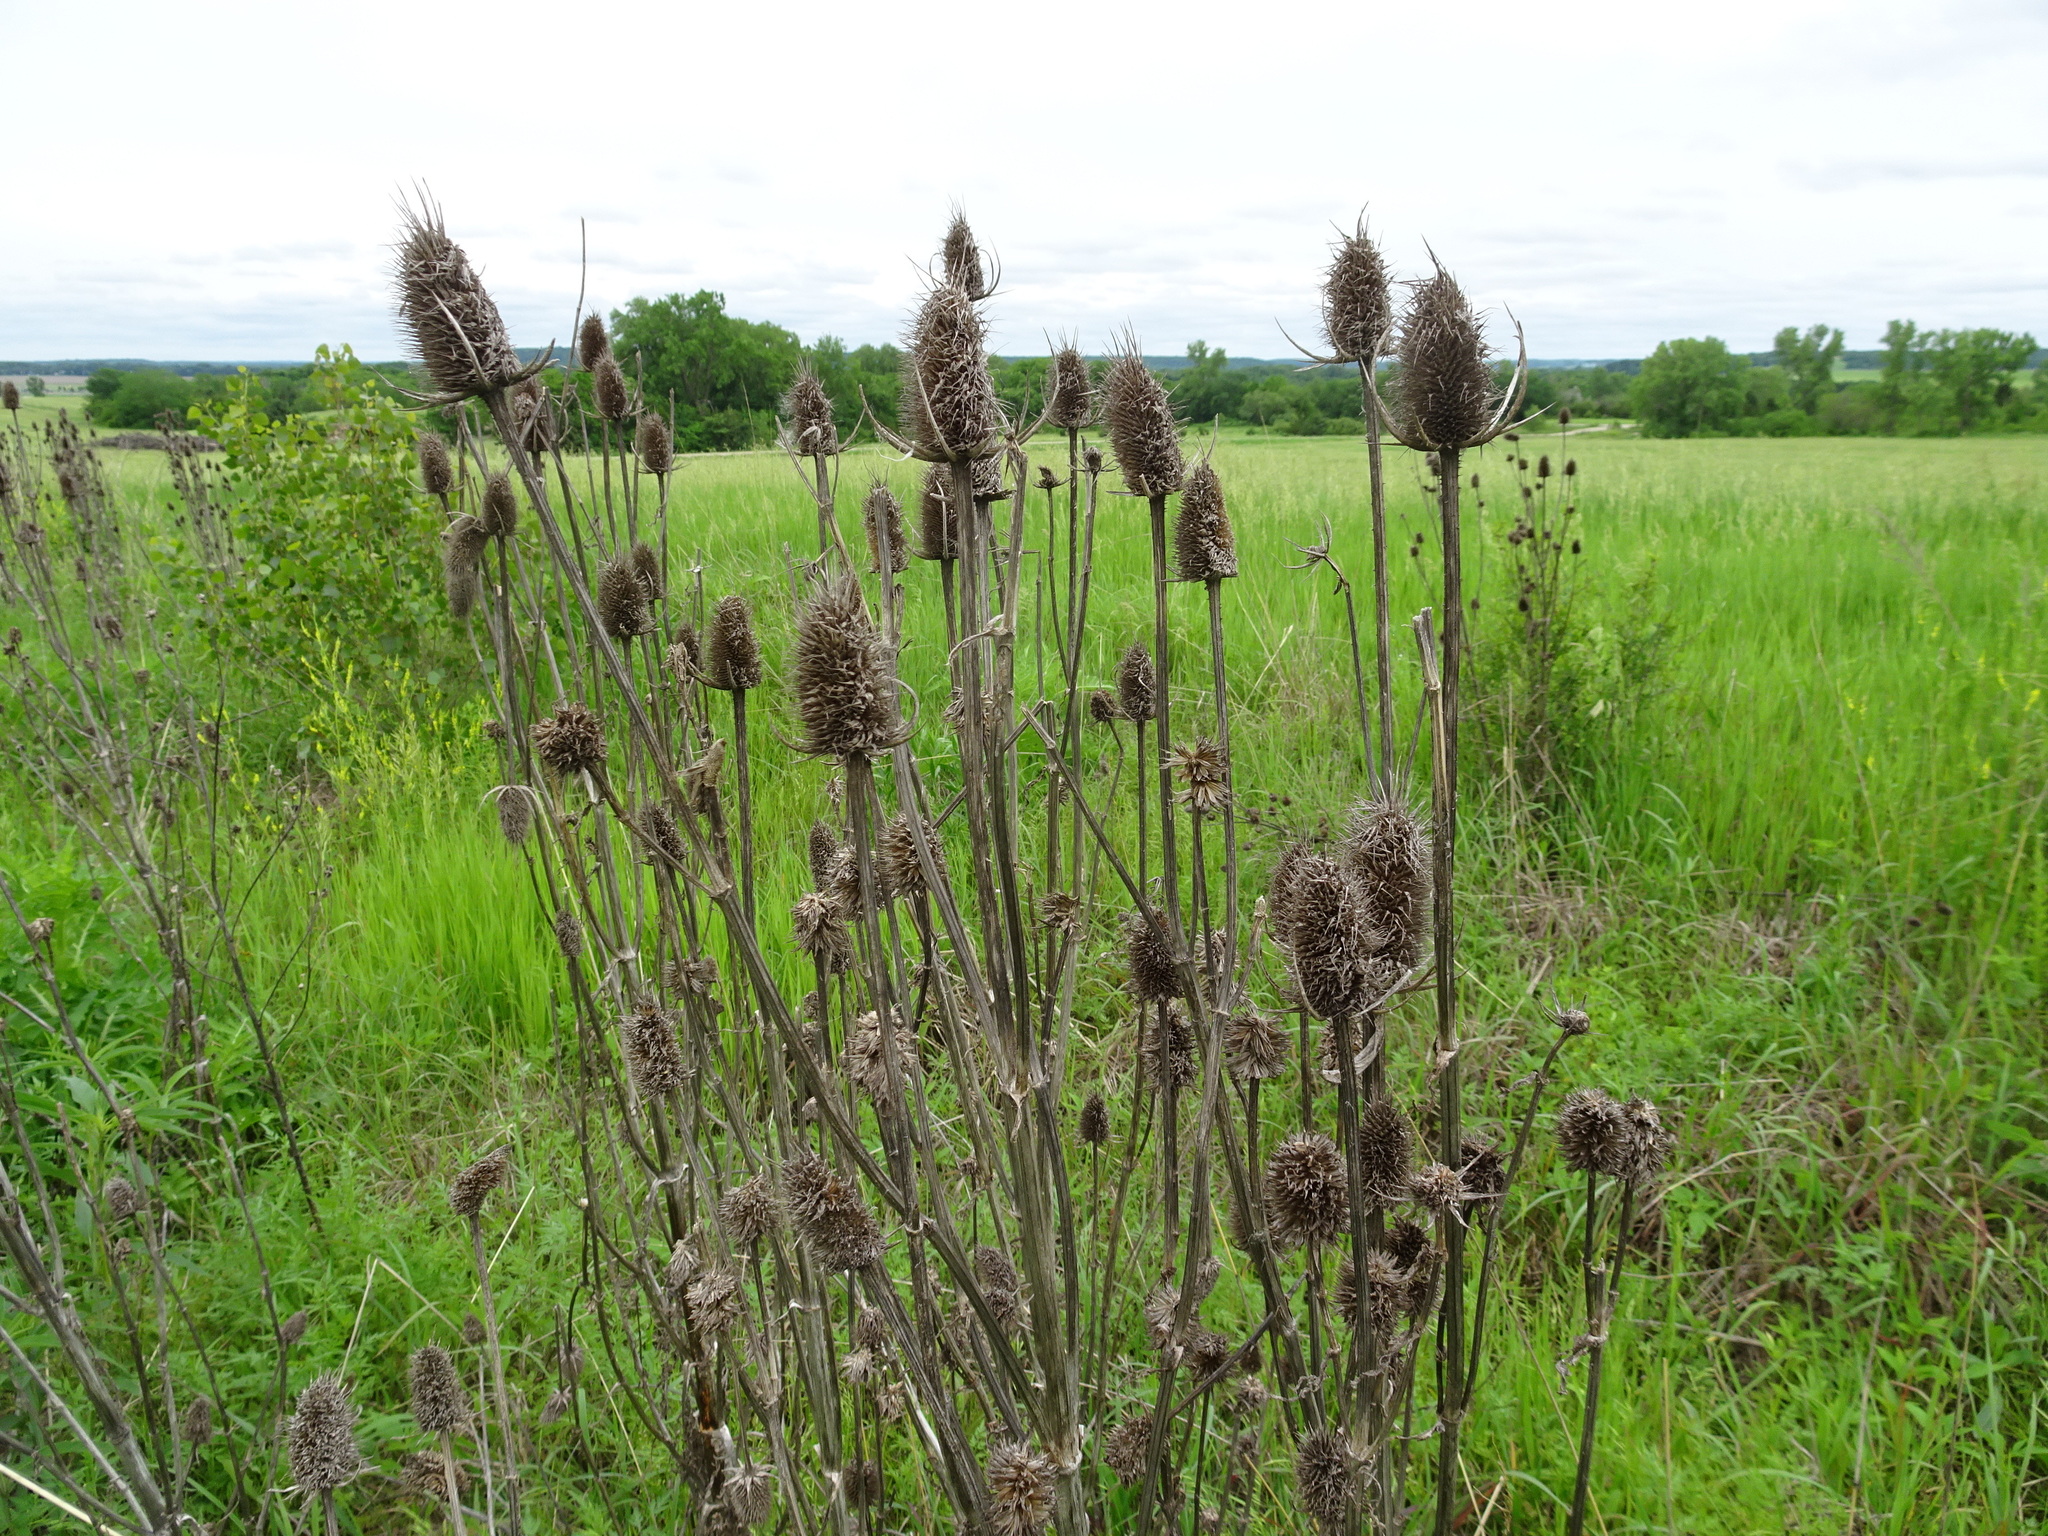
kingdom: Plantae
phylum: Tracheophyta
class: Magnoliopsida
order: Dipsacales
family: Caprifoliaceae
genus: Dipsacus
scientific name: Dipsacus laciniatus
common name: Cut-leaved teasel
